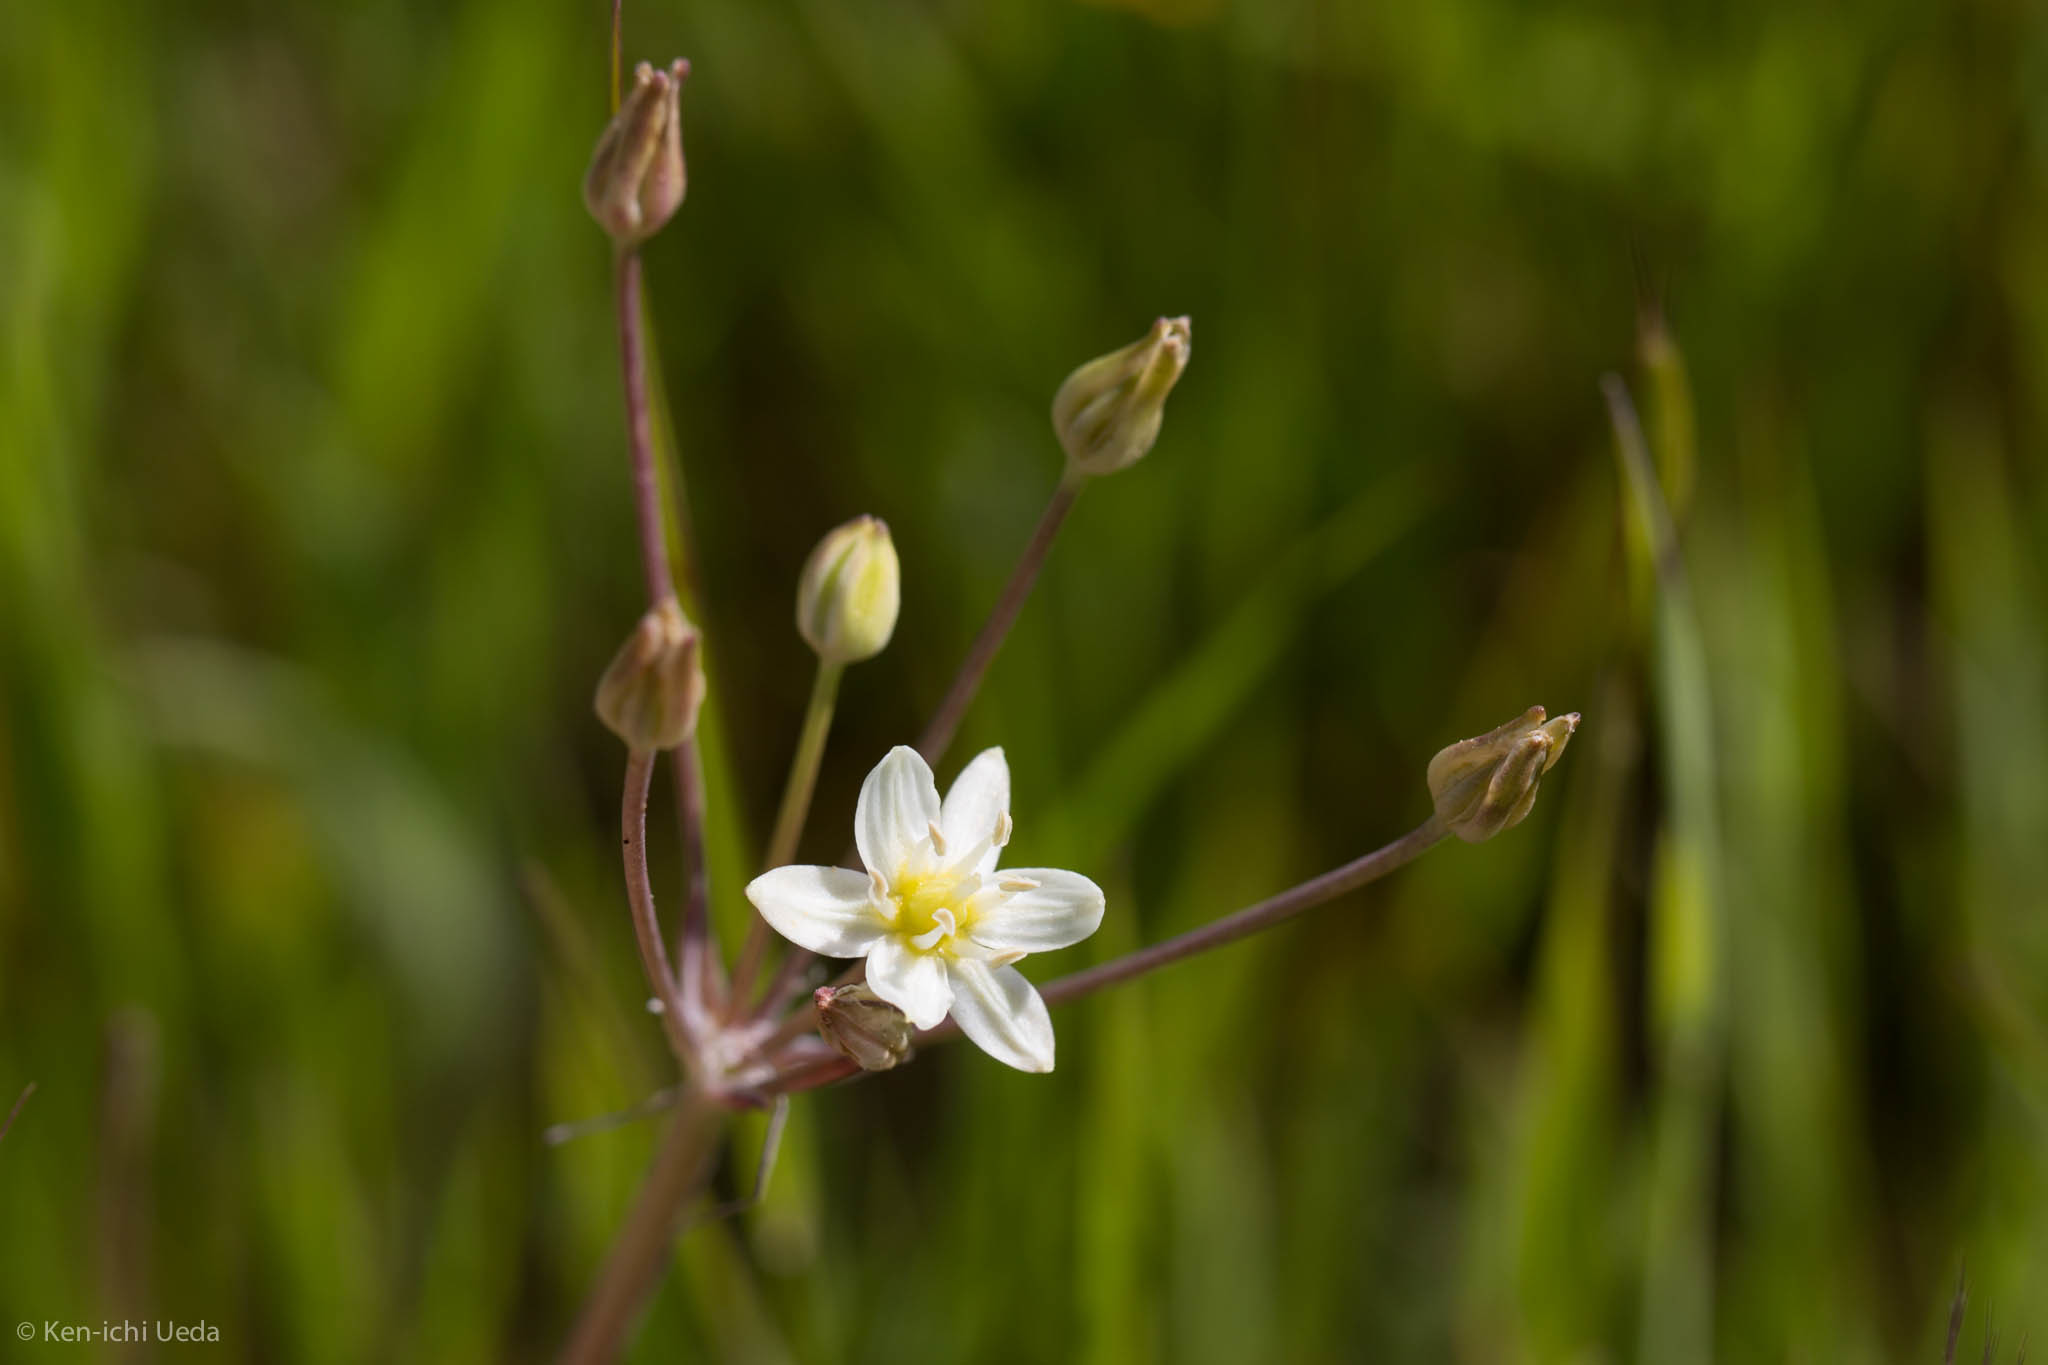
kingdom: Plantae
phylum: Tracheophyta
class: Liliopsida
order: Asparagales
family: Asparagaceae
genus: Muilla
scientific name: Muilla maritima
